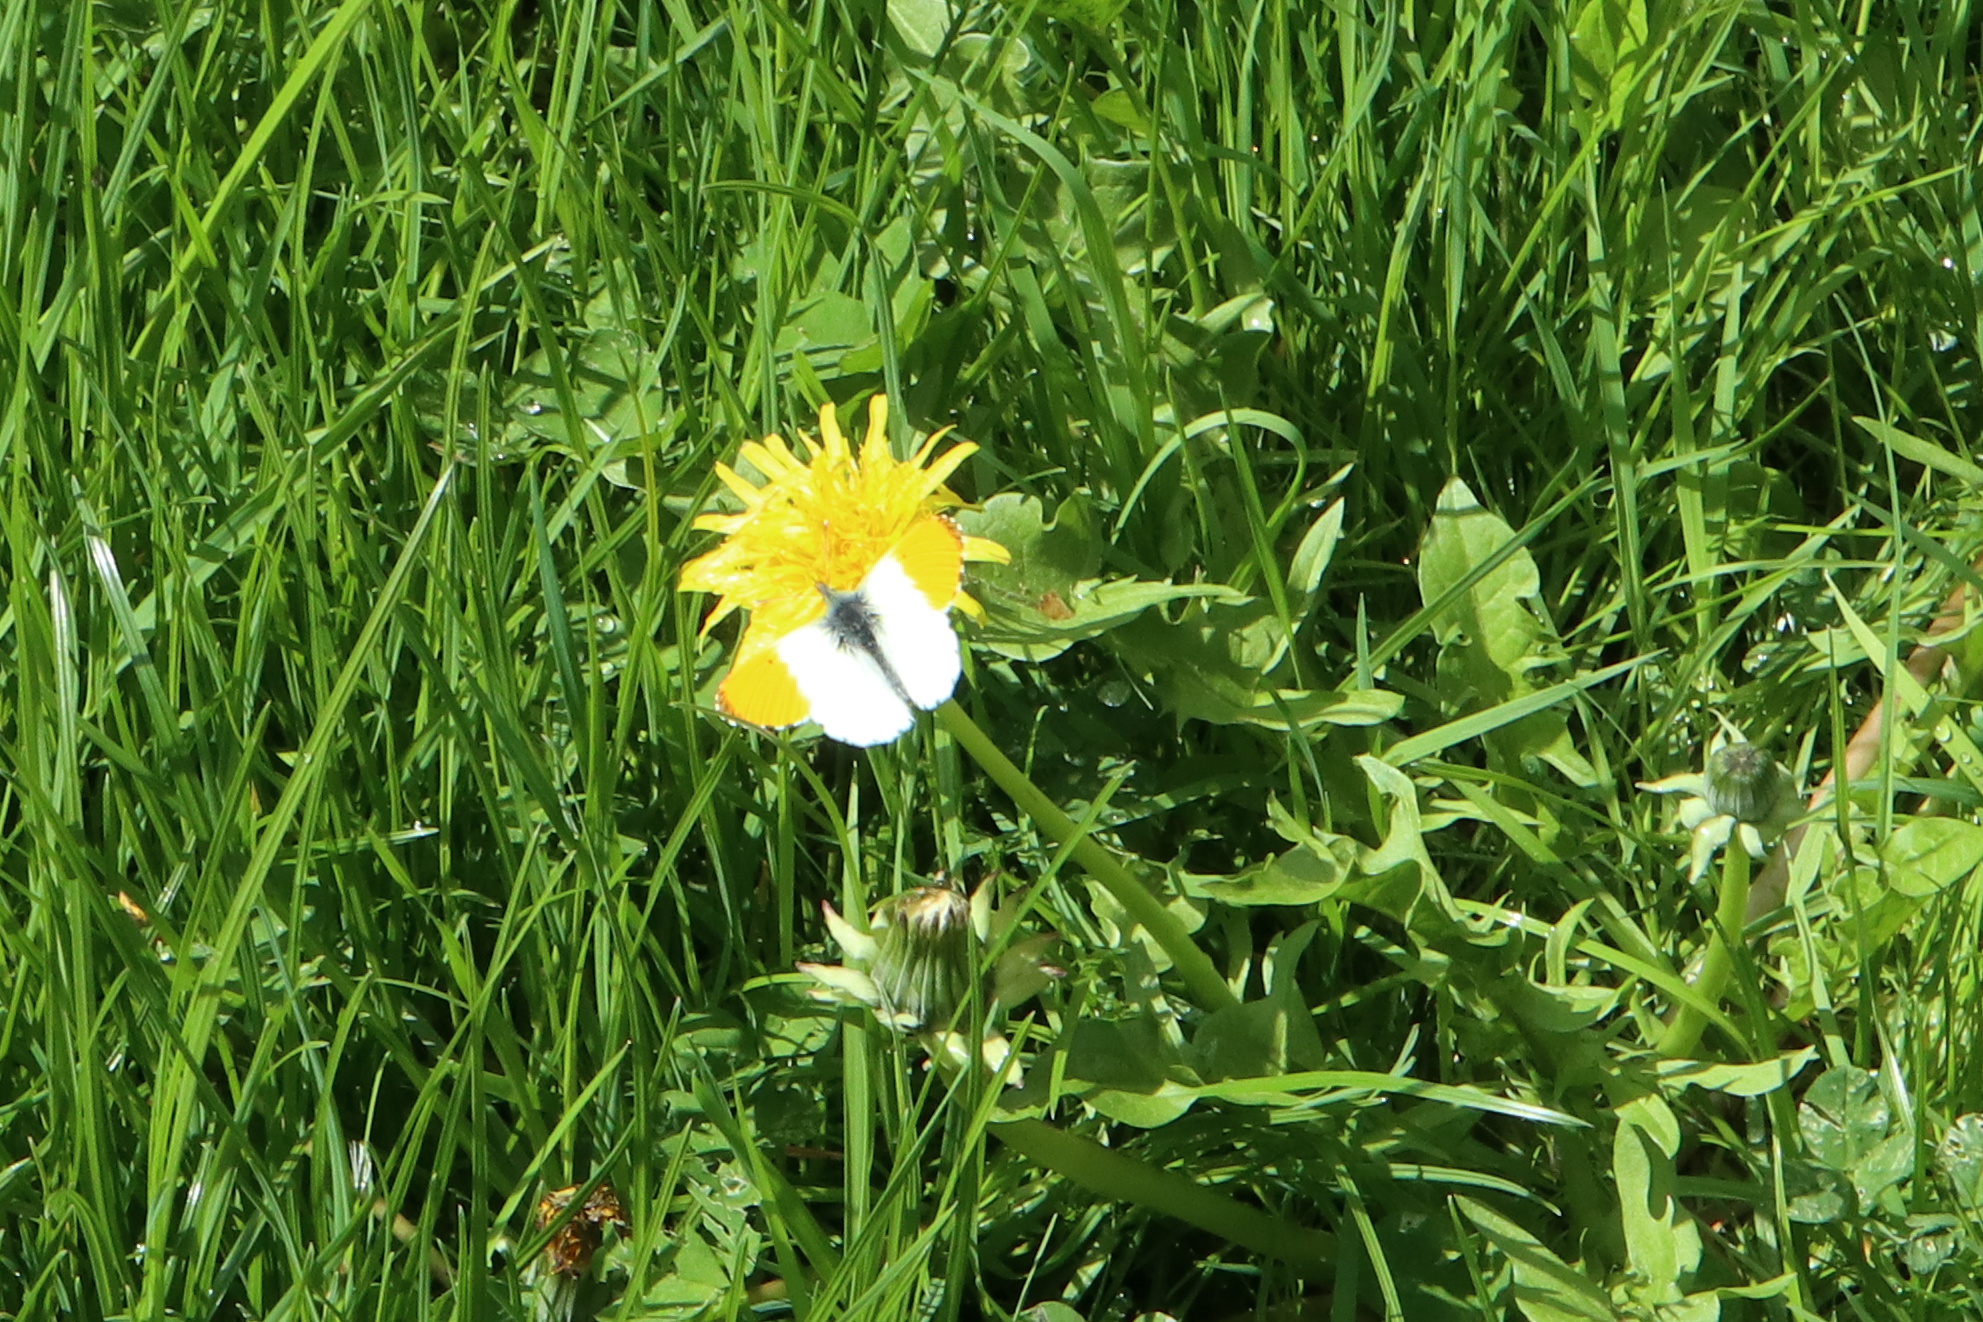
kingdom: Animalia
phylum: Arthropoda
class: Insecta
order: Lepidoptera
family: Pieridae
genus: Anthocharis
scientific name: Anthocharis cardamines
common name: Orange-tip
